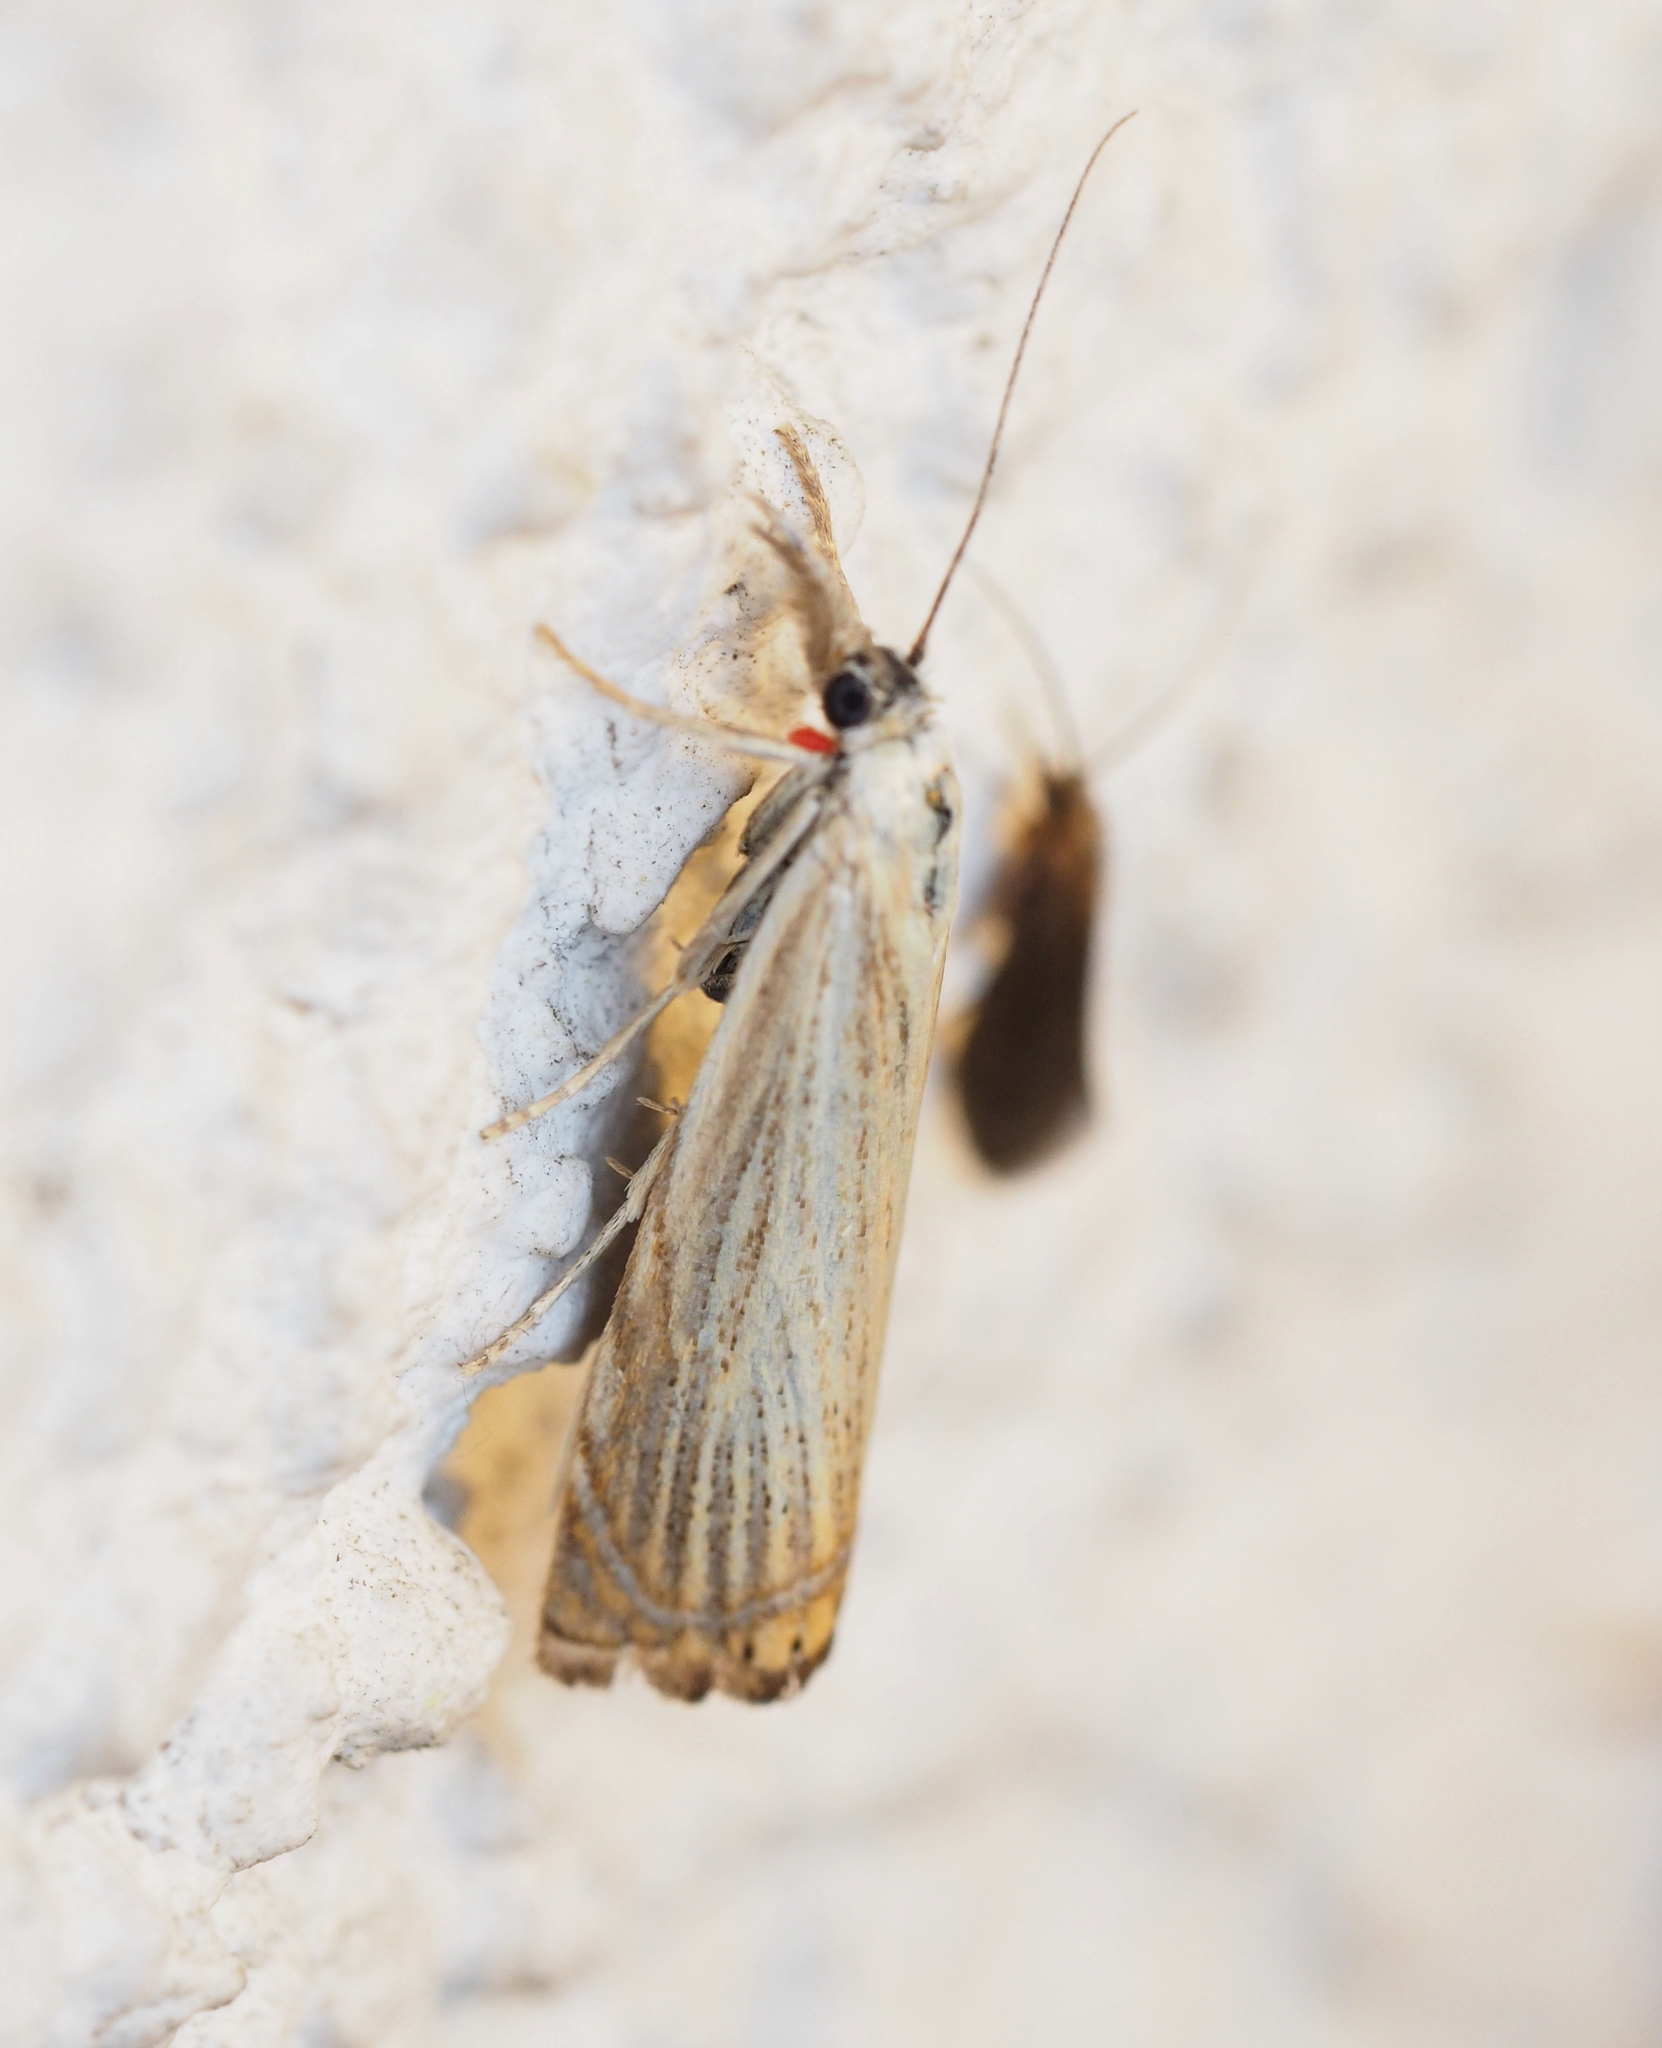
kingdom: Animalia
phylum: Arthropoda
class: Insecta
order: Lepidoptera
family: Crambidae
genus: Chrysoteuchia
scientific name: Chrysoteuchia culmella
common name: Garden grass-veneer
